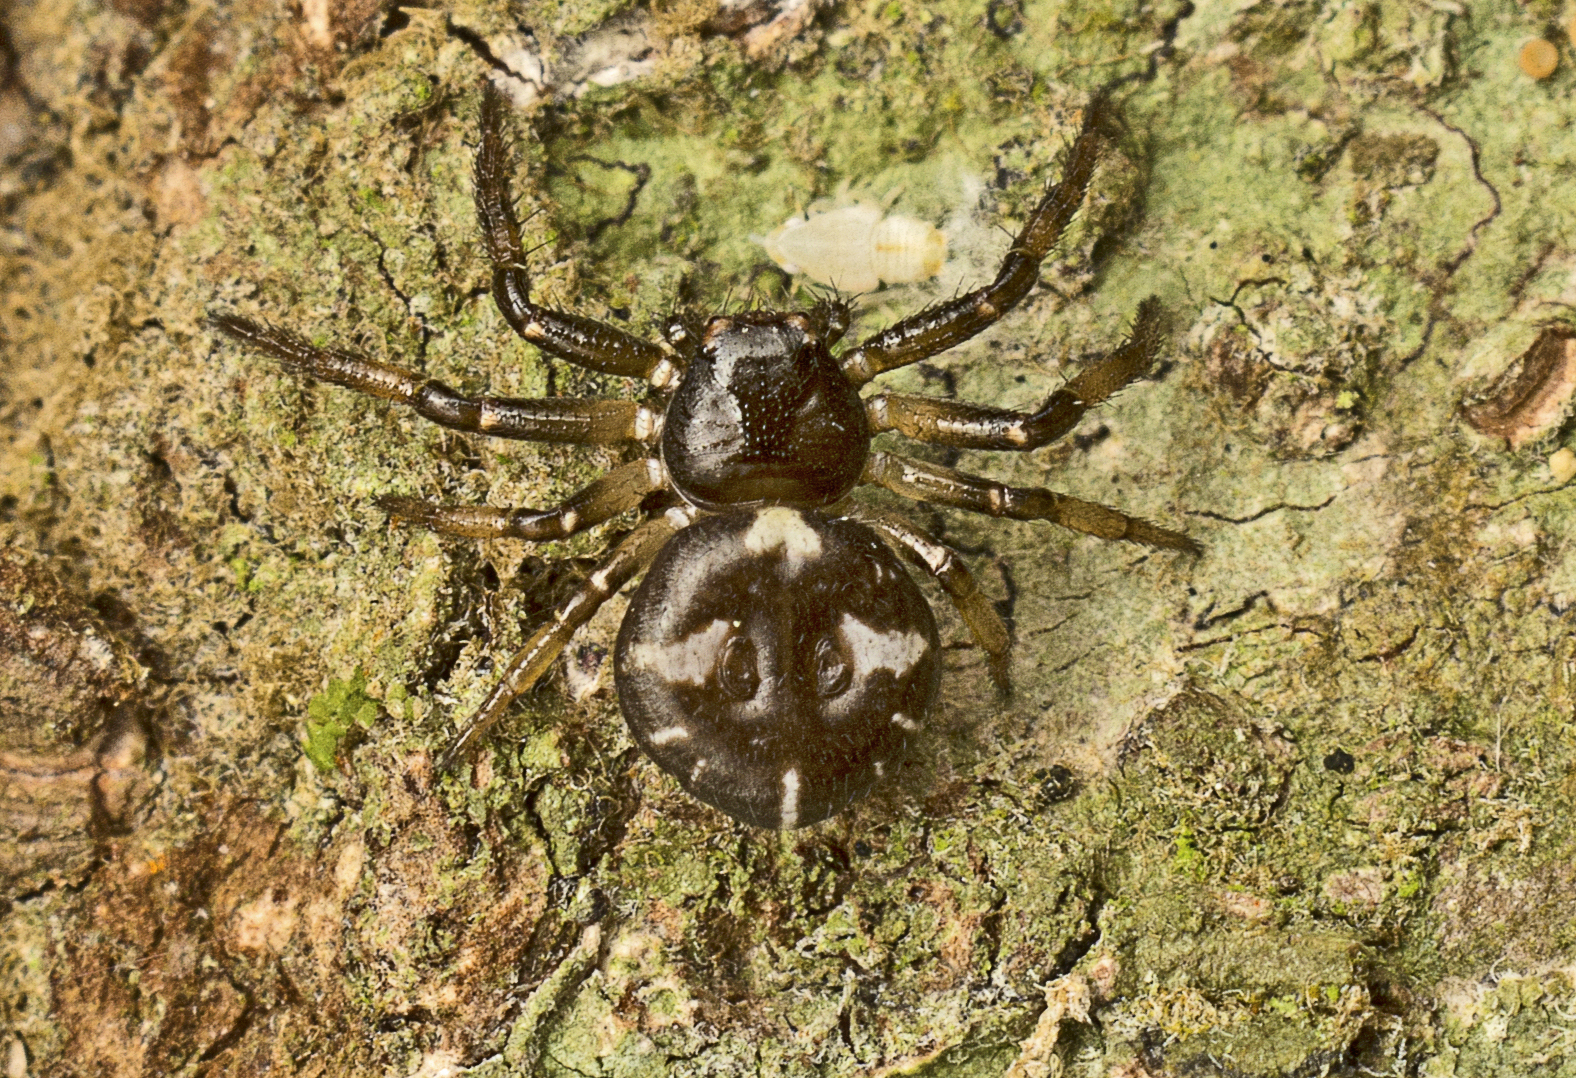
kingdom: Animalia
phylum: Arthropoda
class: Arachnida
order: Araneae
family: Thomisidae
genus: Tharpyna
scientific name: Tharpyna decorata
